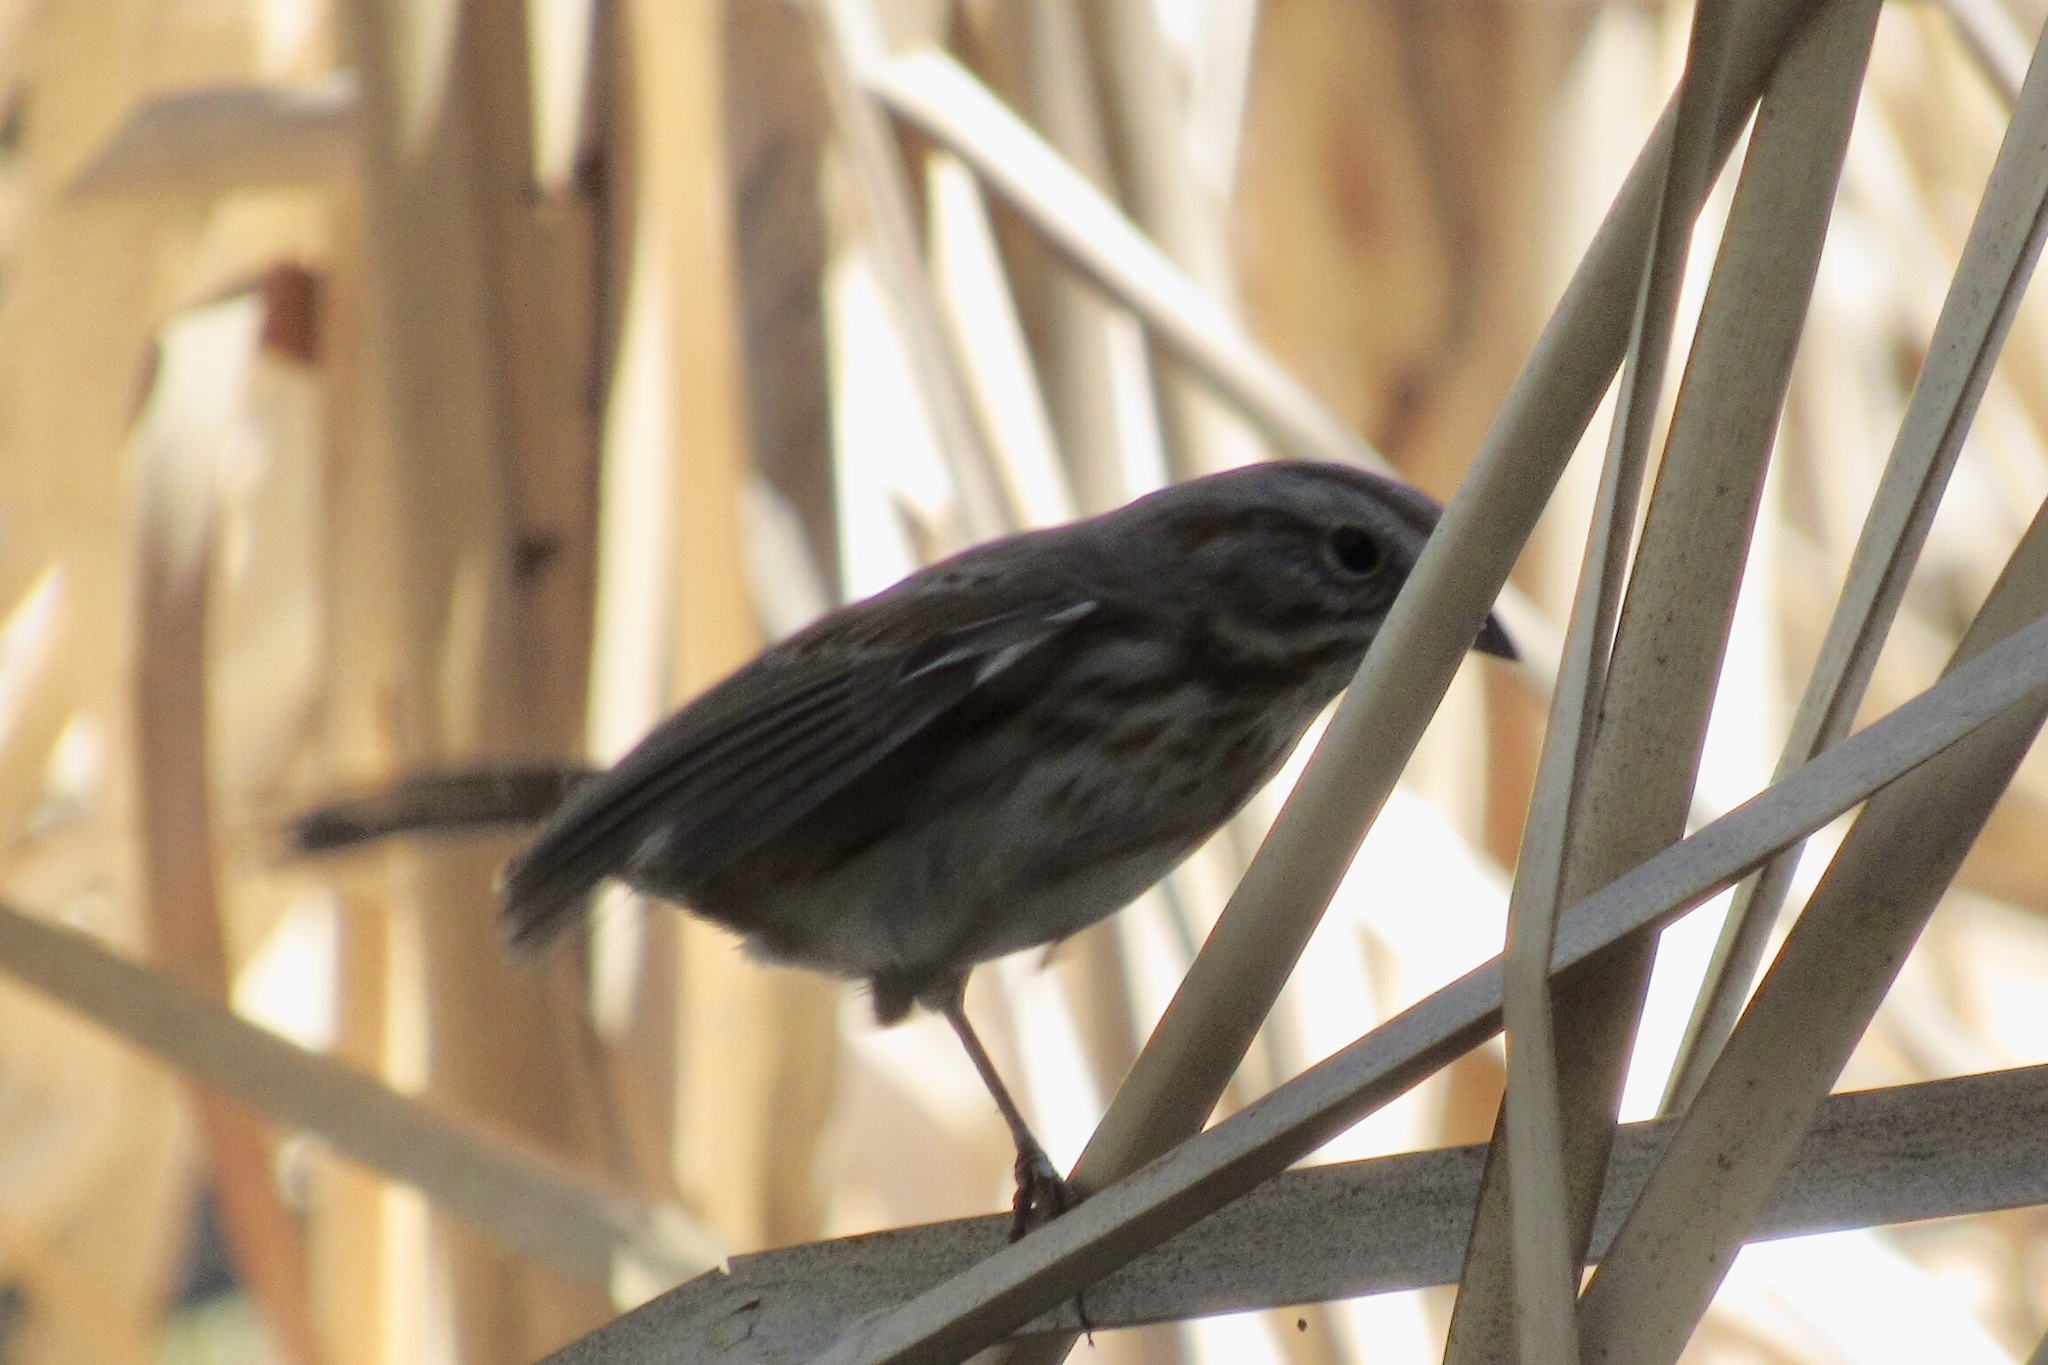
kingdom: Animalia
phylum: Chordata
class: Aves
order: Passeriformes
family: Passerellidae
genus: Melospiza
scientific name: Melospiza melodia
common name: Song sparrow
